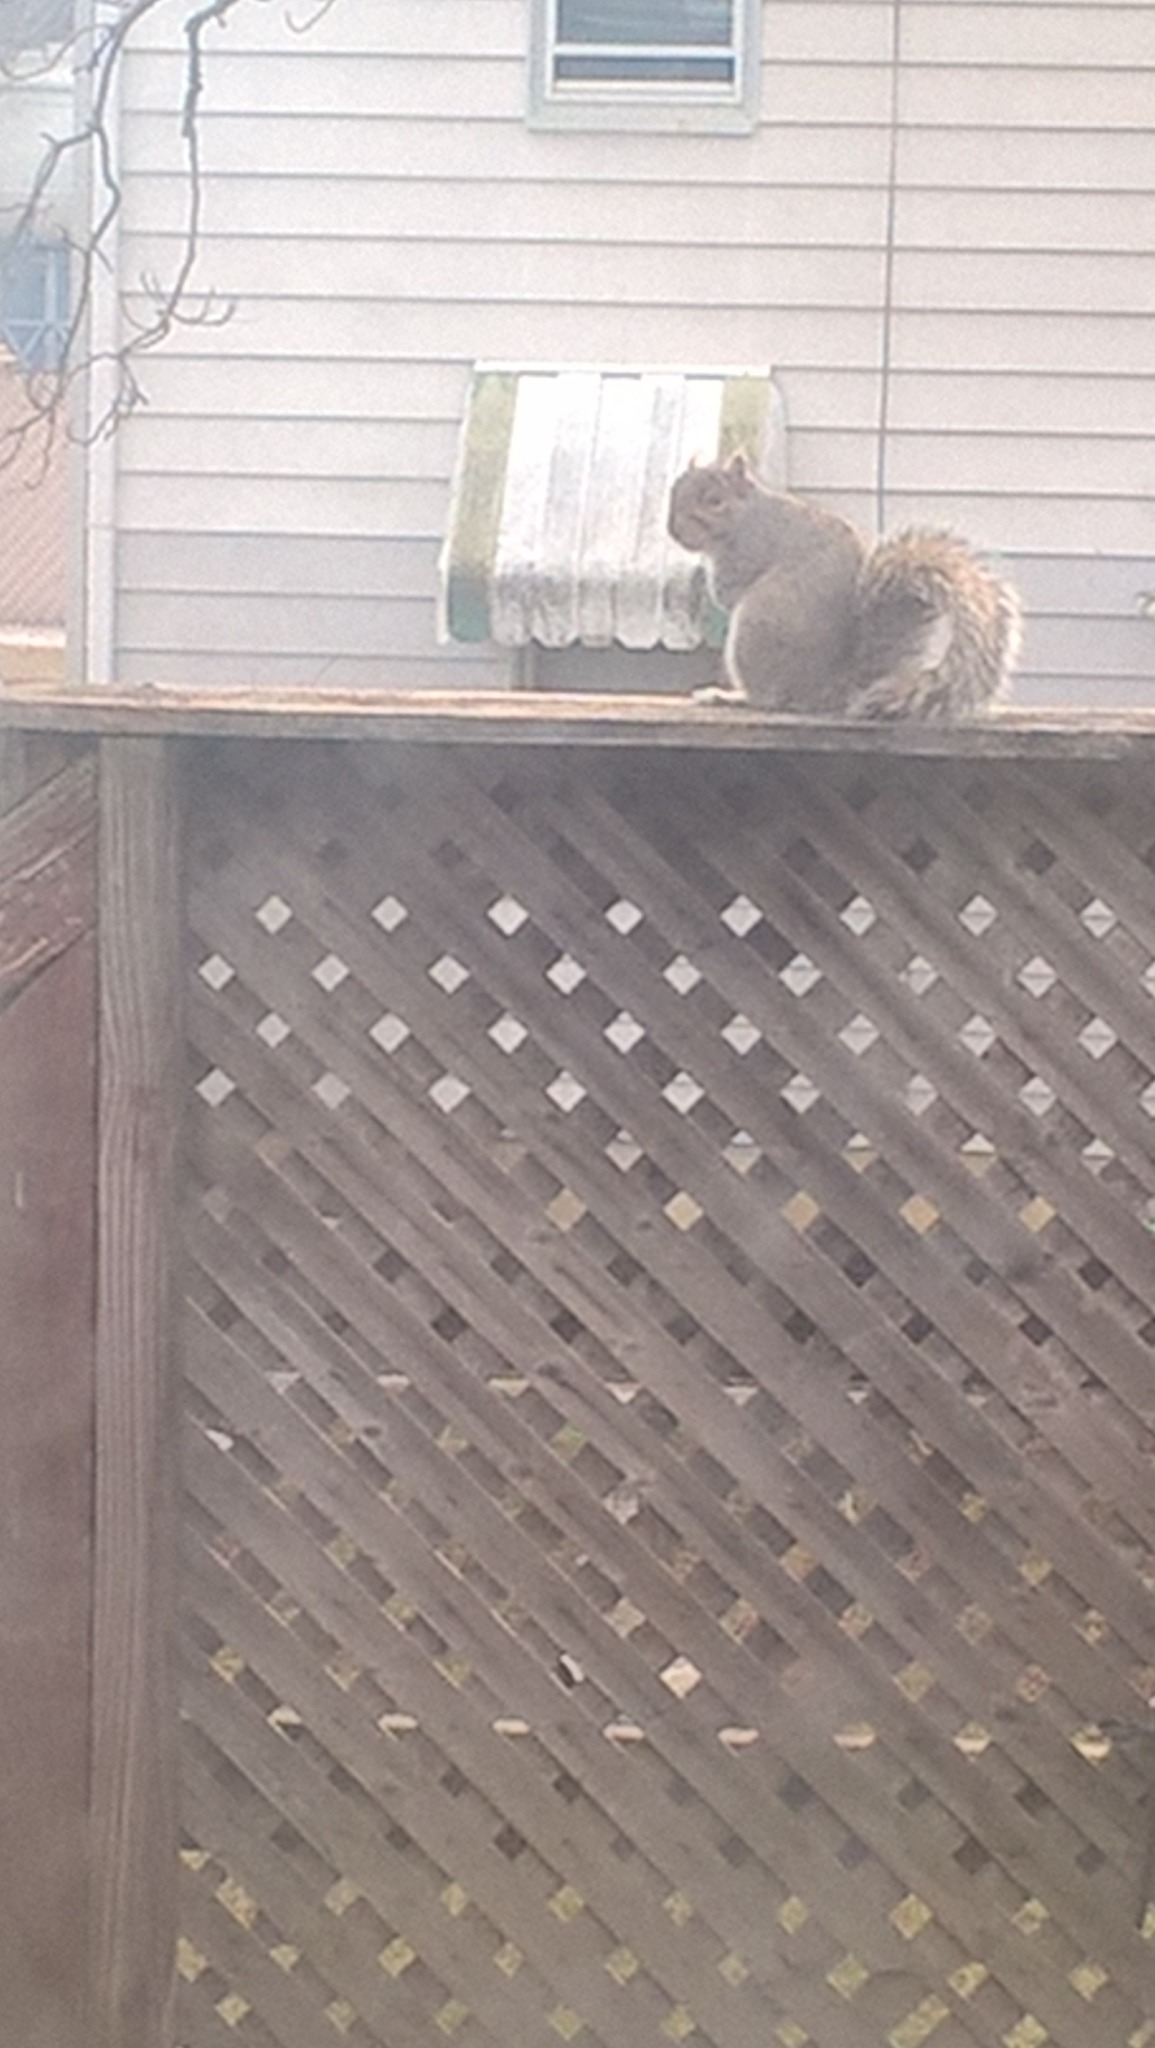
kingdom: Animalia
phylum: Chordata
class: Mammalia
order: Rodentia
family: Sciuridae
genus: Sciurus
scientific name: Sciurus carolinensis
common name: Eastern gray squirrel
